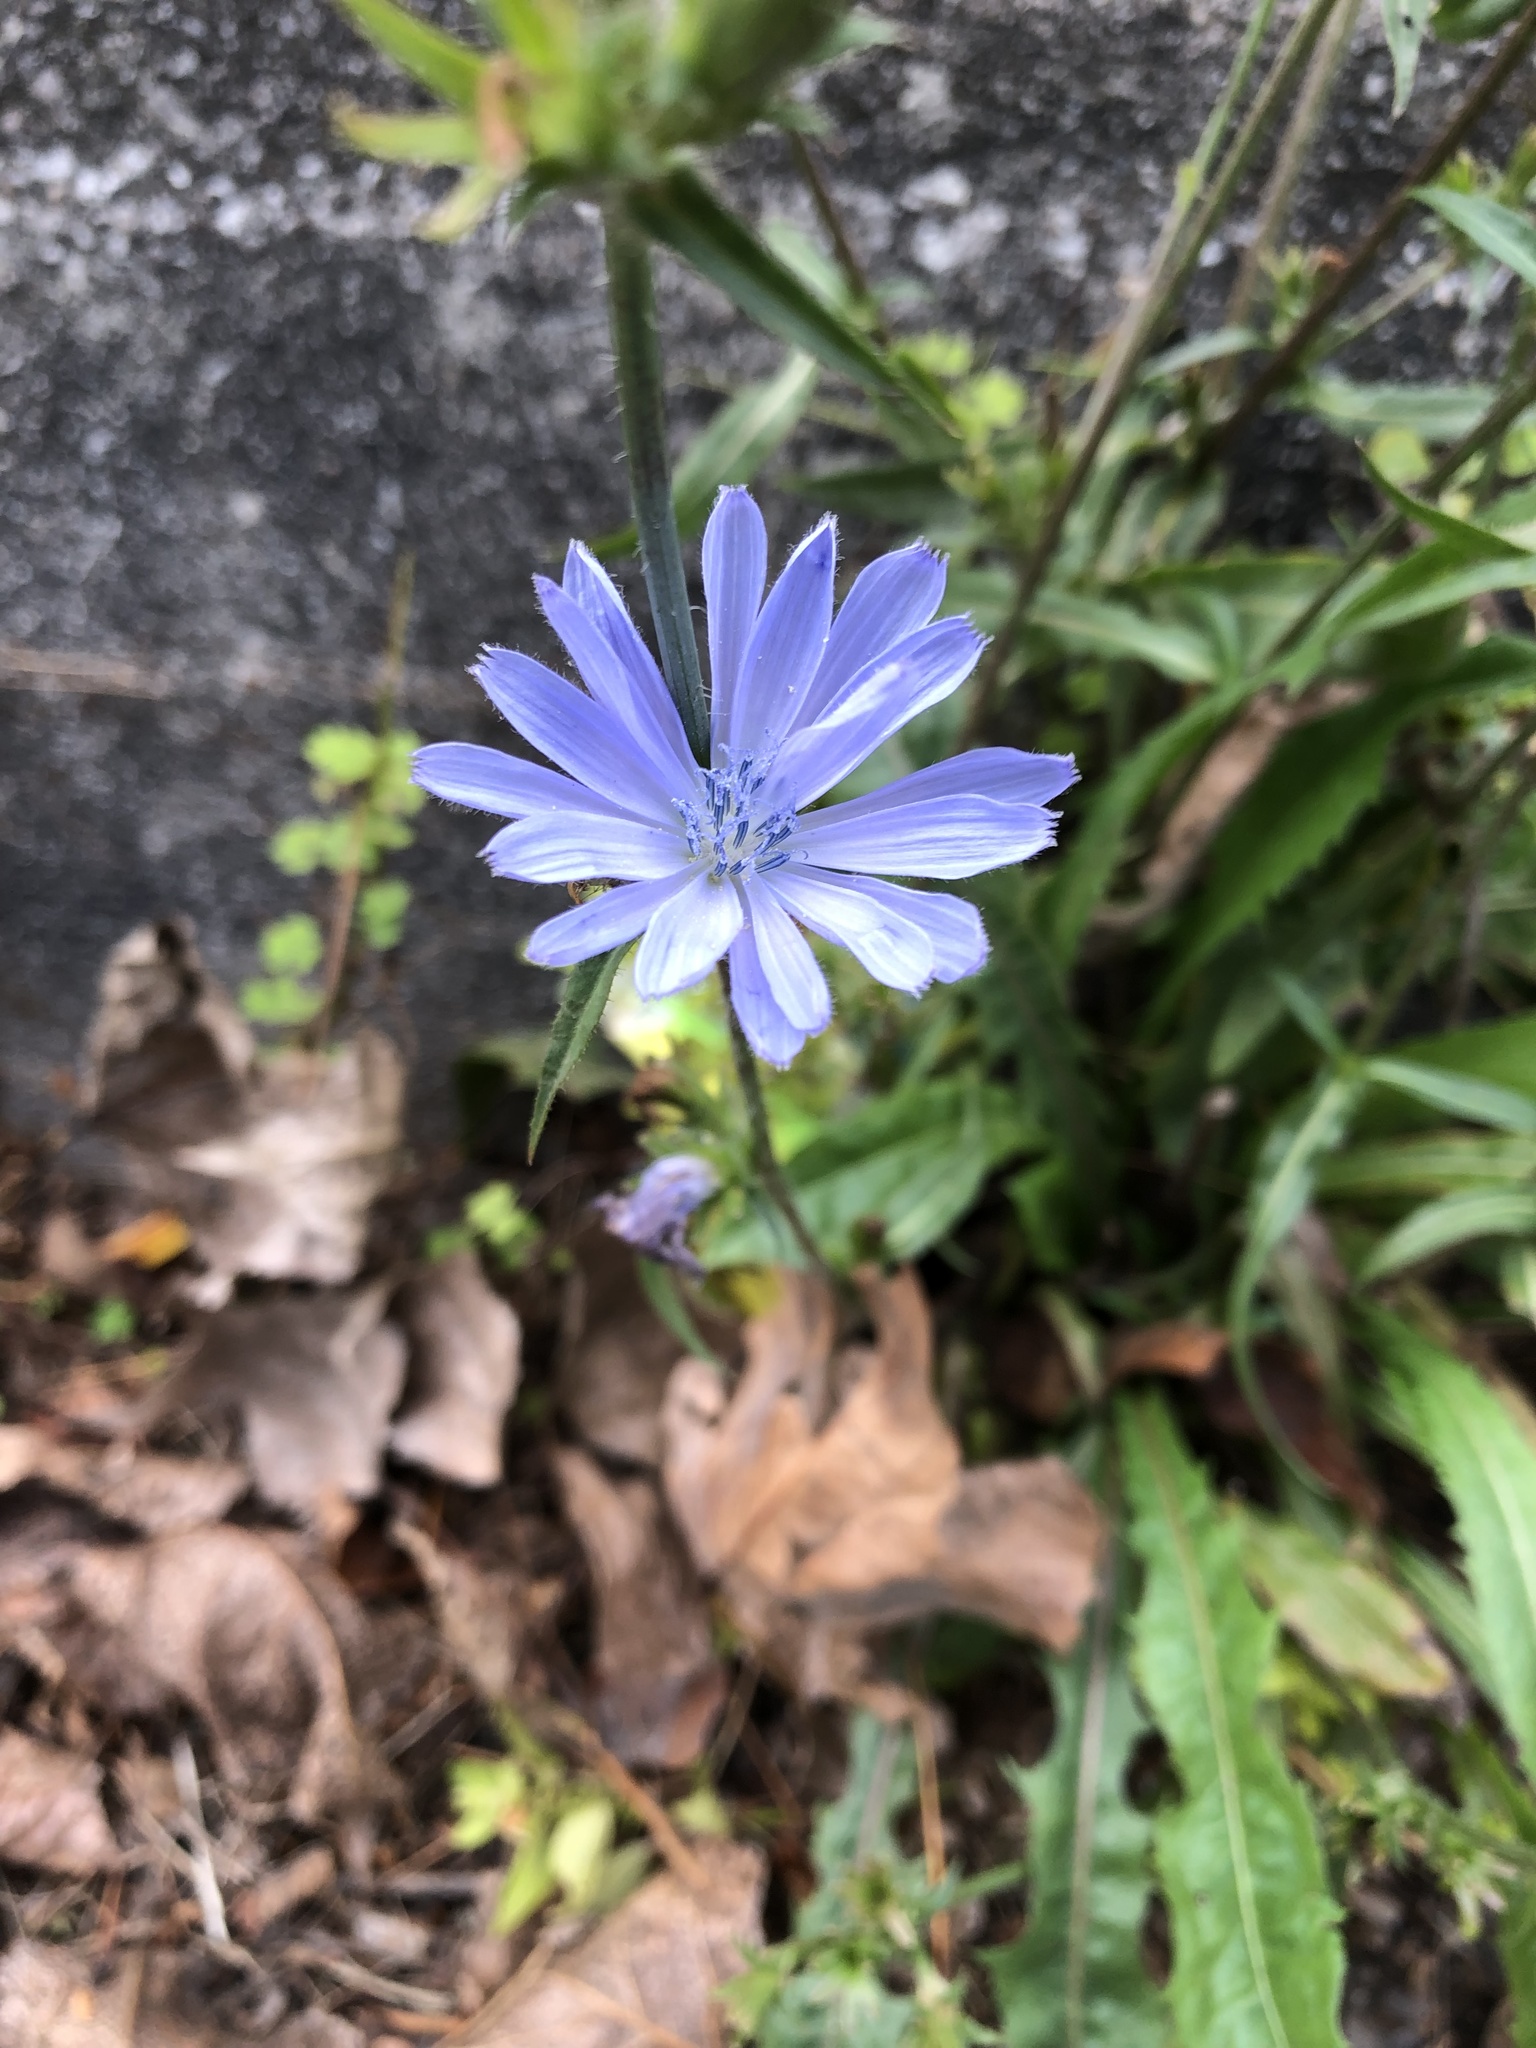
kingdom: Plantae
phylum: Tracheophyta
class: Magnoliopsida
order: Asterales
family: Asteraceae
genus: Cichorium
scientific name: Cichorium intybus
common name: Chicory
